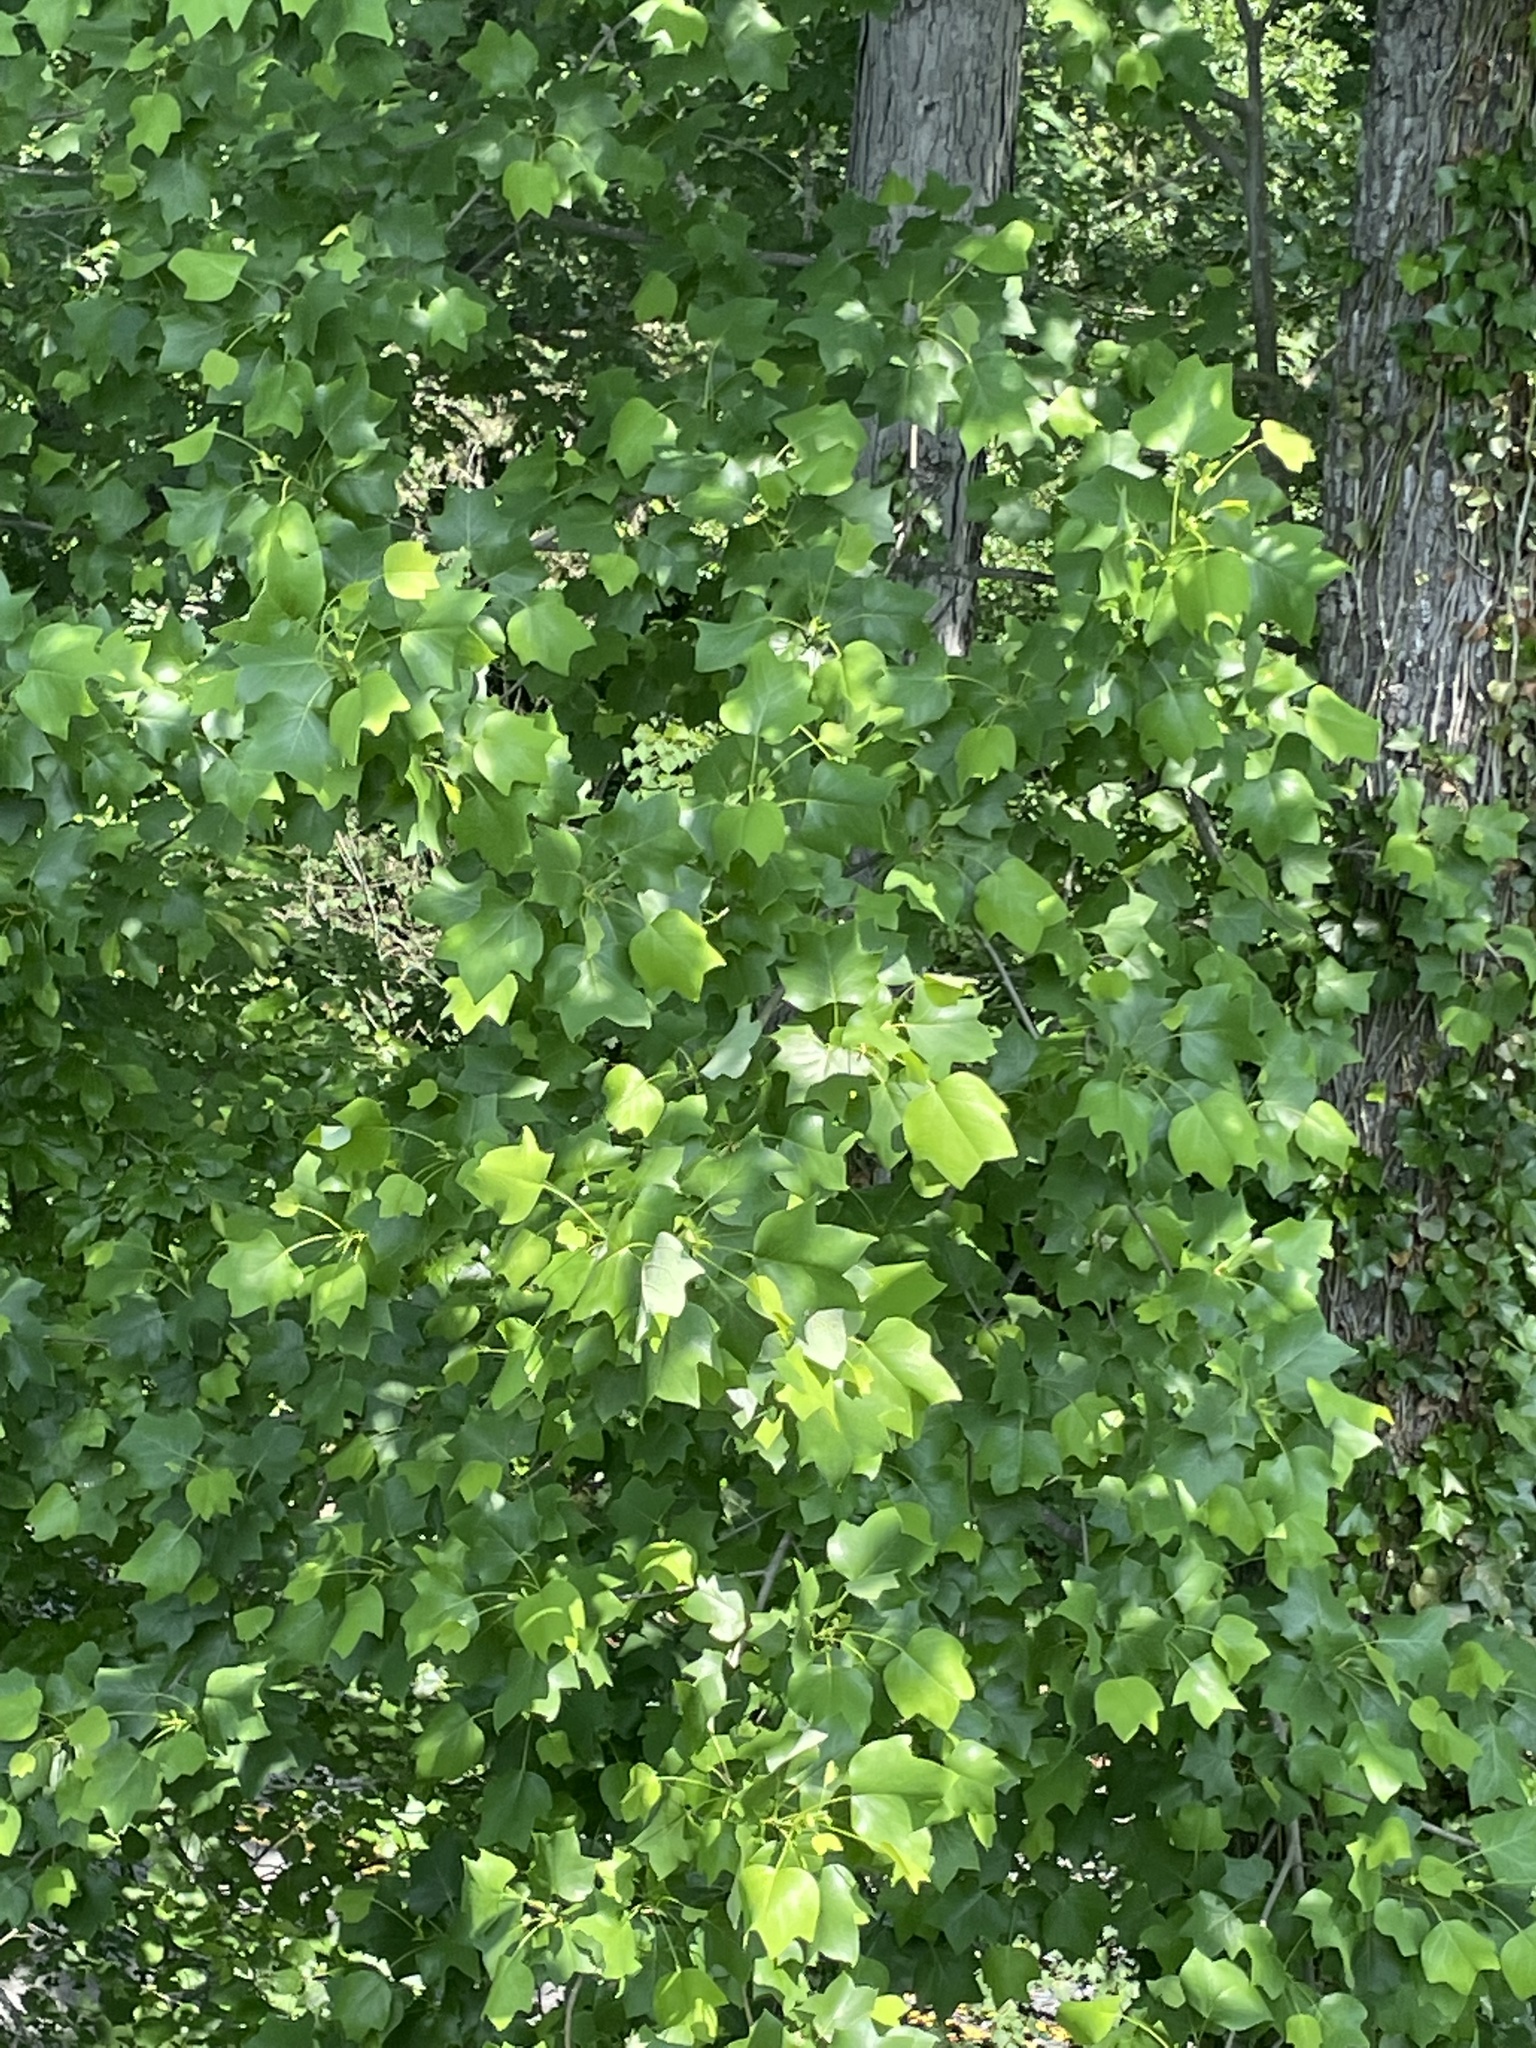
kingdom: Plantae
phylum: Tracheophyta
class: Magnoliopsida
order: Magnoliales
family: Magnoliaceae
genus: Liriodendron
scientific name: Liriodendron tulipifera
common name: Tulip tree
